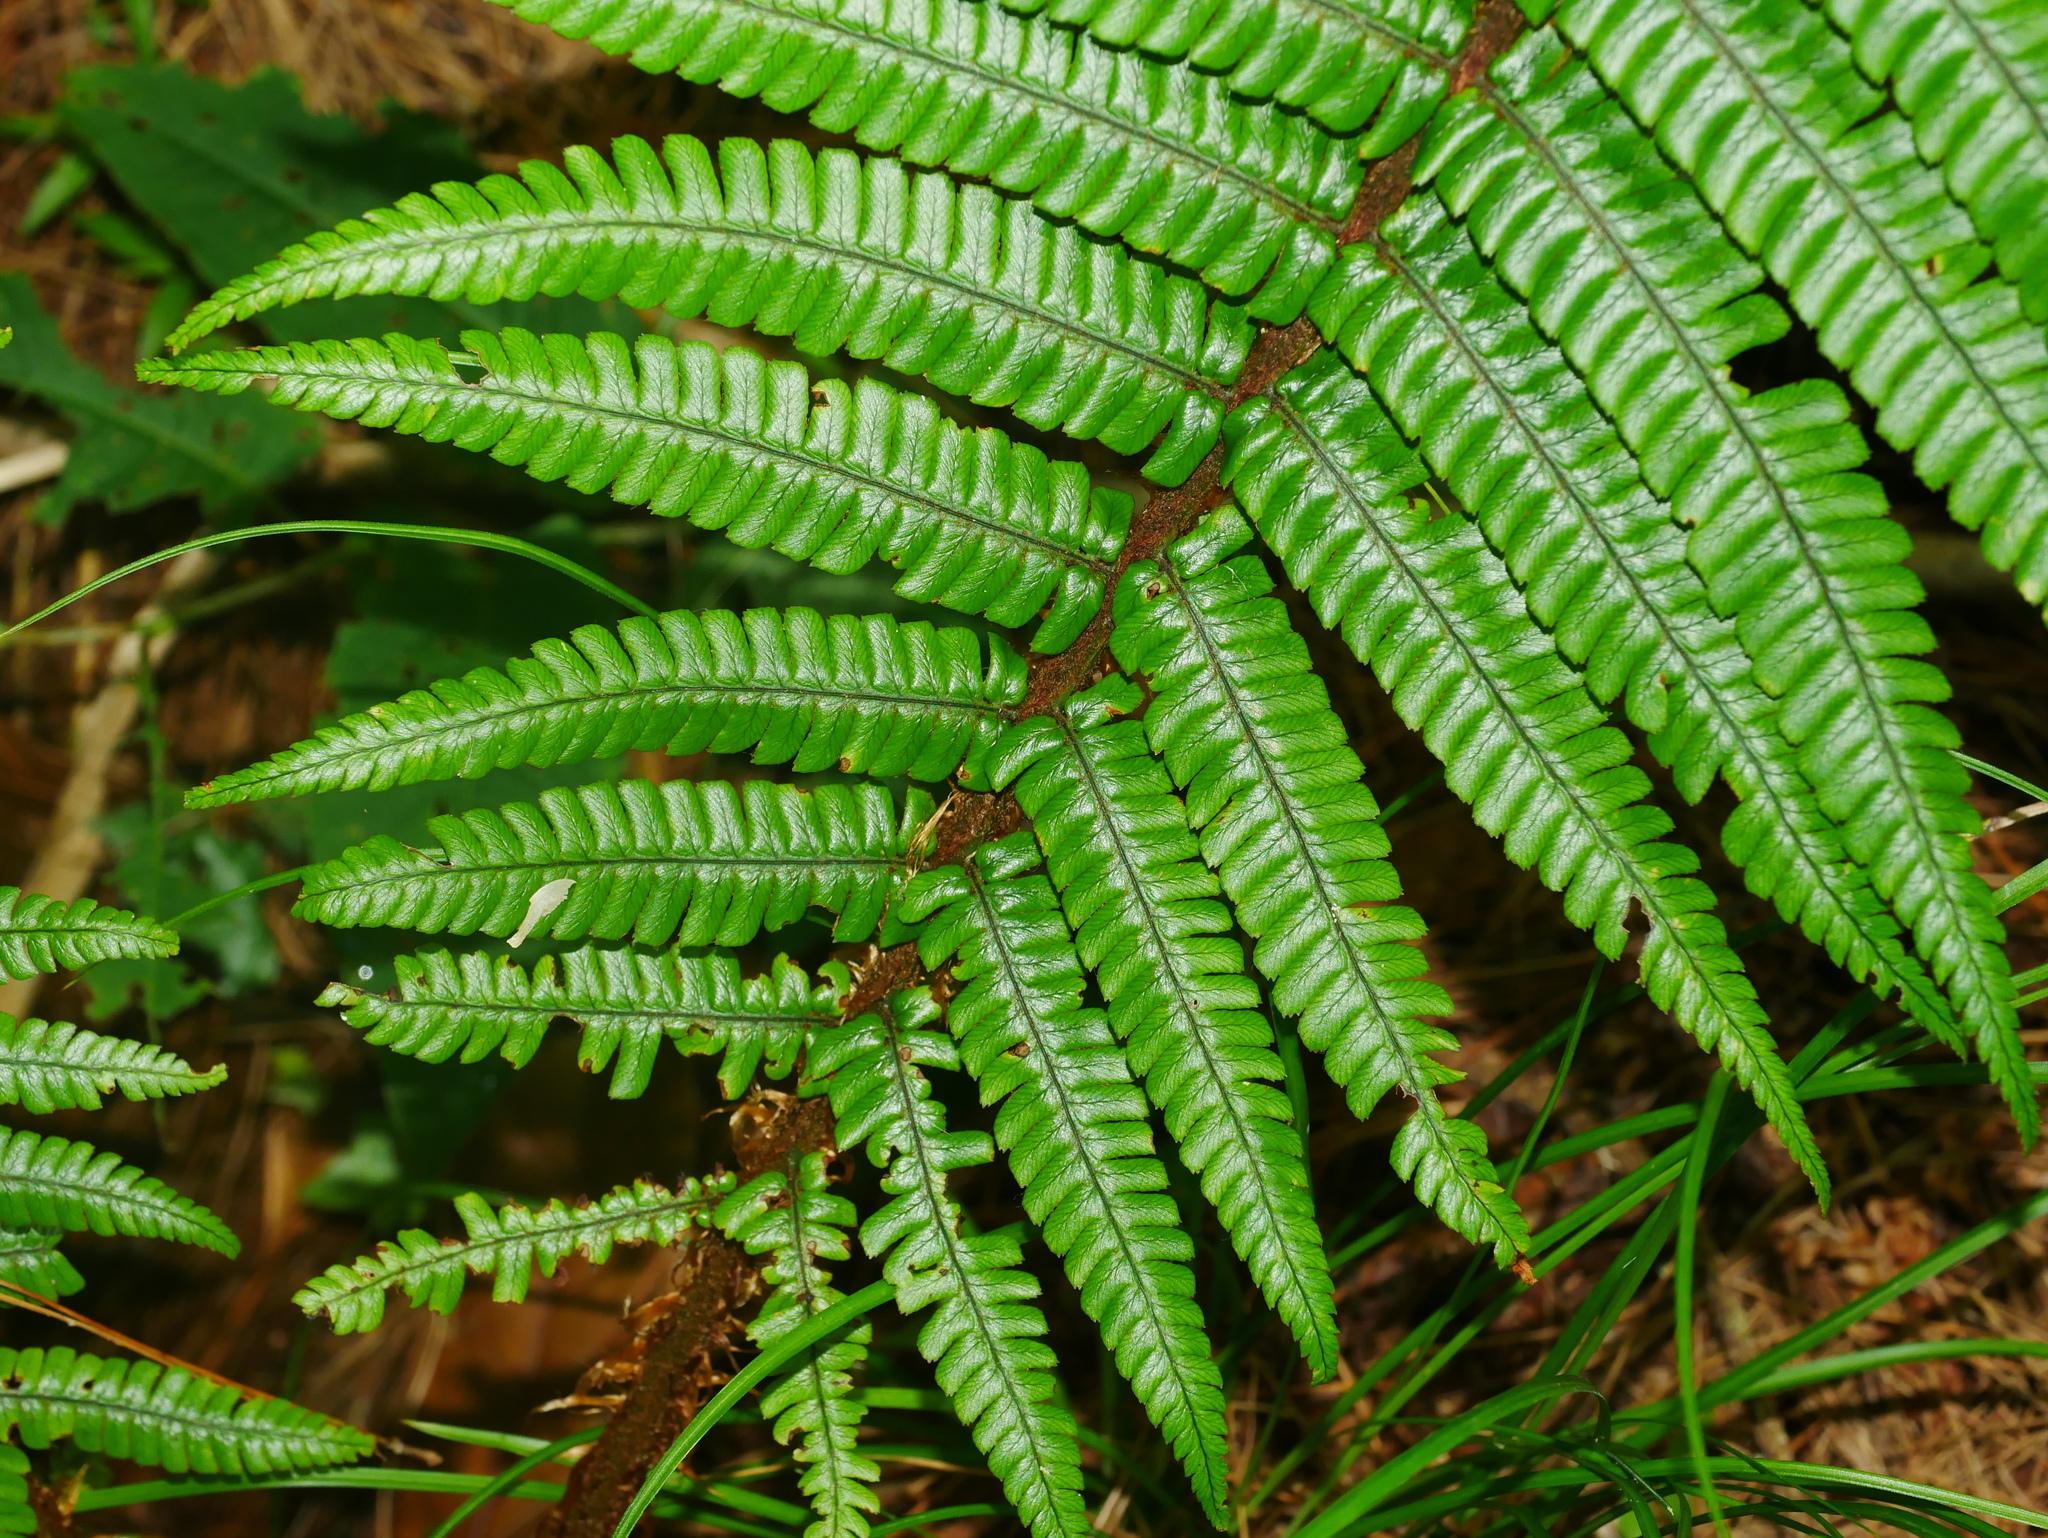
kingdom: Plantae
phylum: Tracheophyta
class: Polypodiopsida
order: Polypodiales
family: Dryopteridaceae
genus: Dryopteris
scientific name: Dryopteris wallichiana
